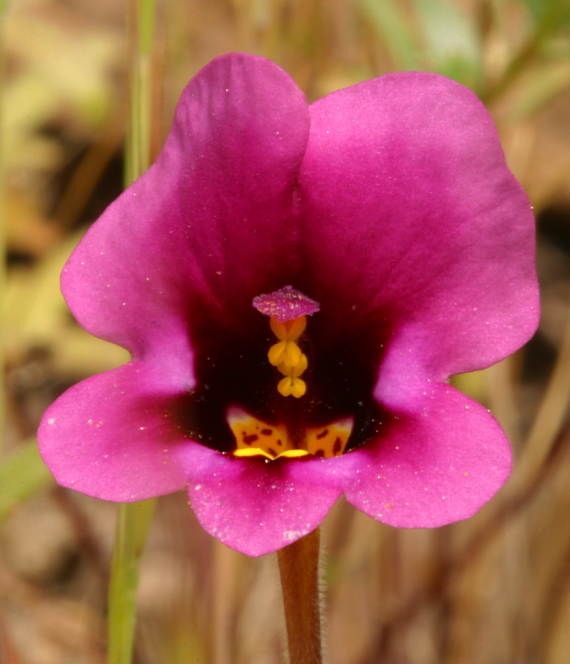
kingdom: Plantae
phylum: Tracheophyta
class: Magnoliopsida
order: Lamiales
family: Phrymaceae
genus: Diplacus
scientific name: Diplacus kelloggii
